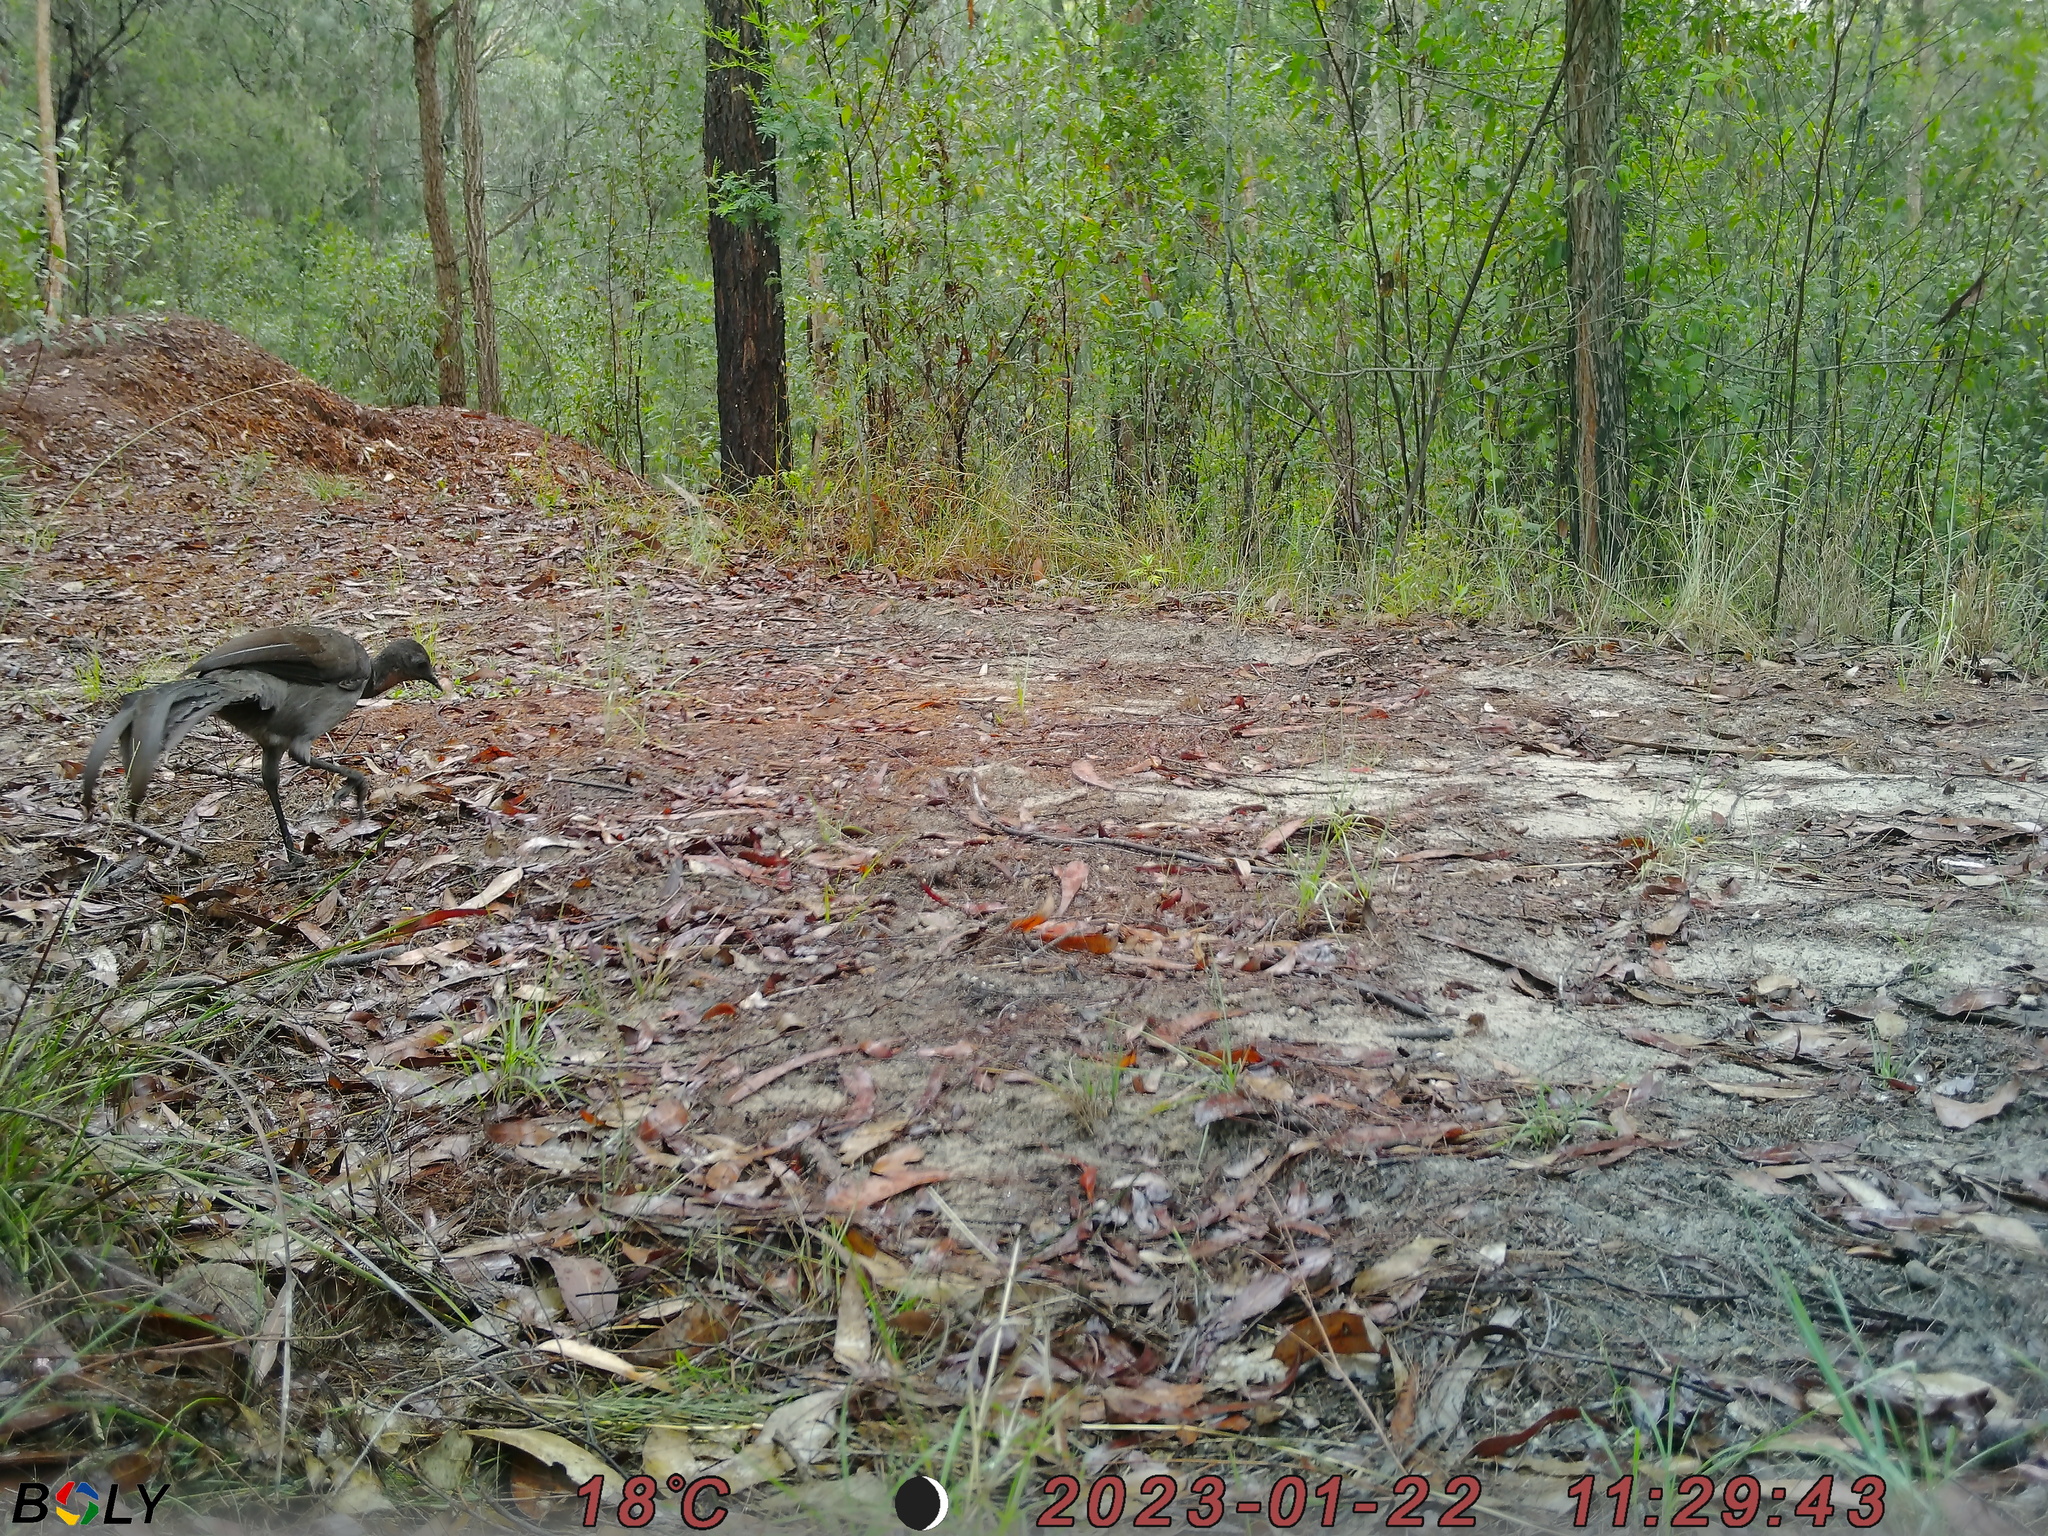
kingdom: Animalia
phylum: Chordata
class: Aves
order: Passeriformes
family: Menuridae
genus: Menura
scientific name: Menura novaehollandiae
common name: Superb lyrebird
